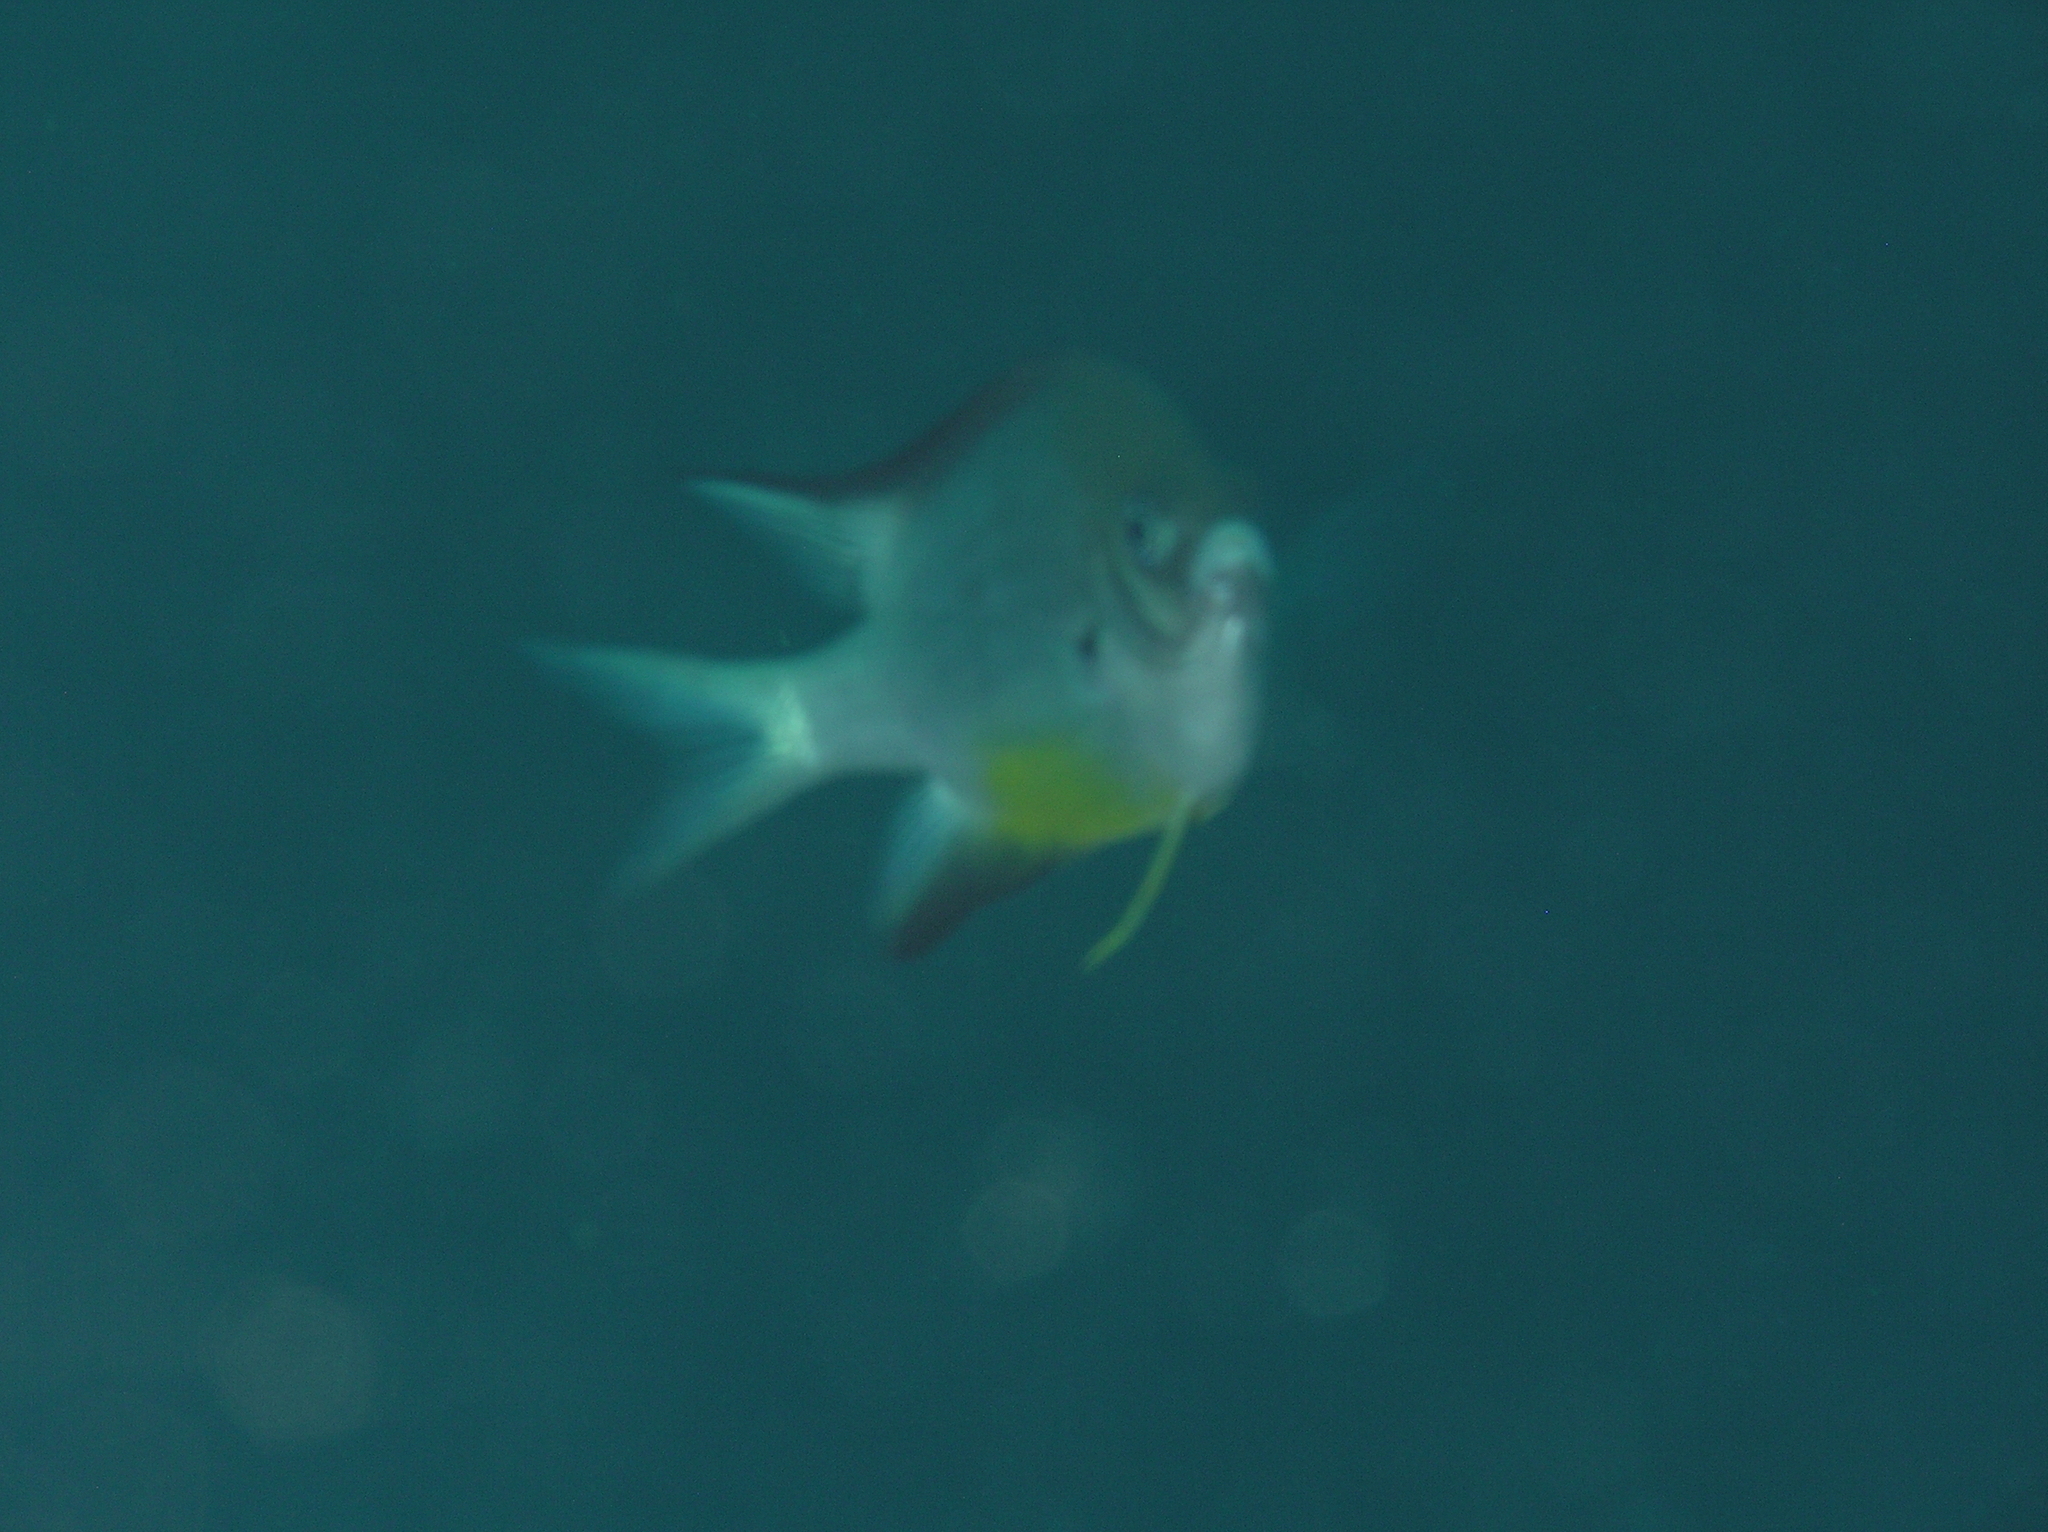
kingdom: Animalia
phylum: Chordata
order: Perciformes
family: Pomacentridae
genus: Amblyglyphidodon
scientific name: Amblyglyphidodon leucogaster
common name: White-belly damsel
